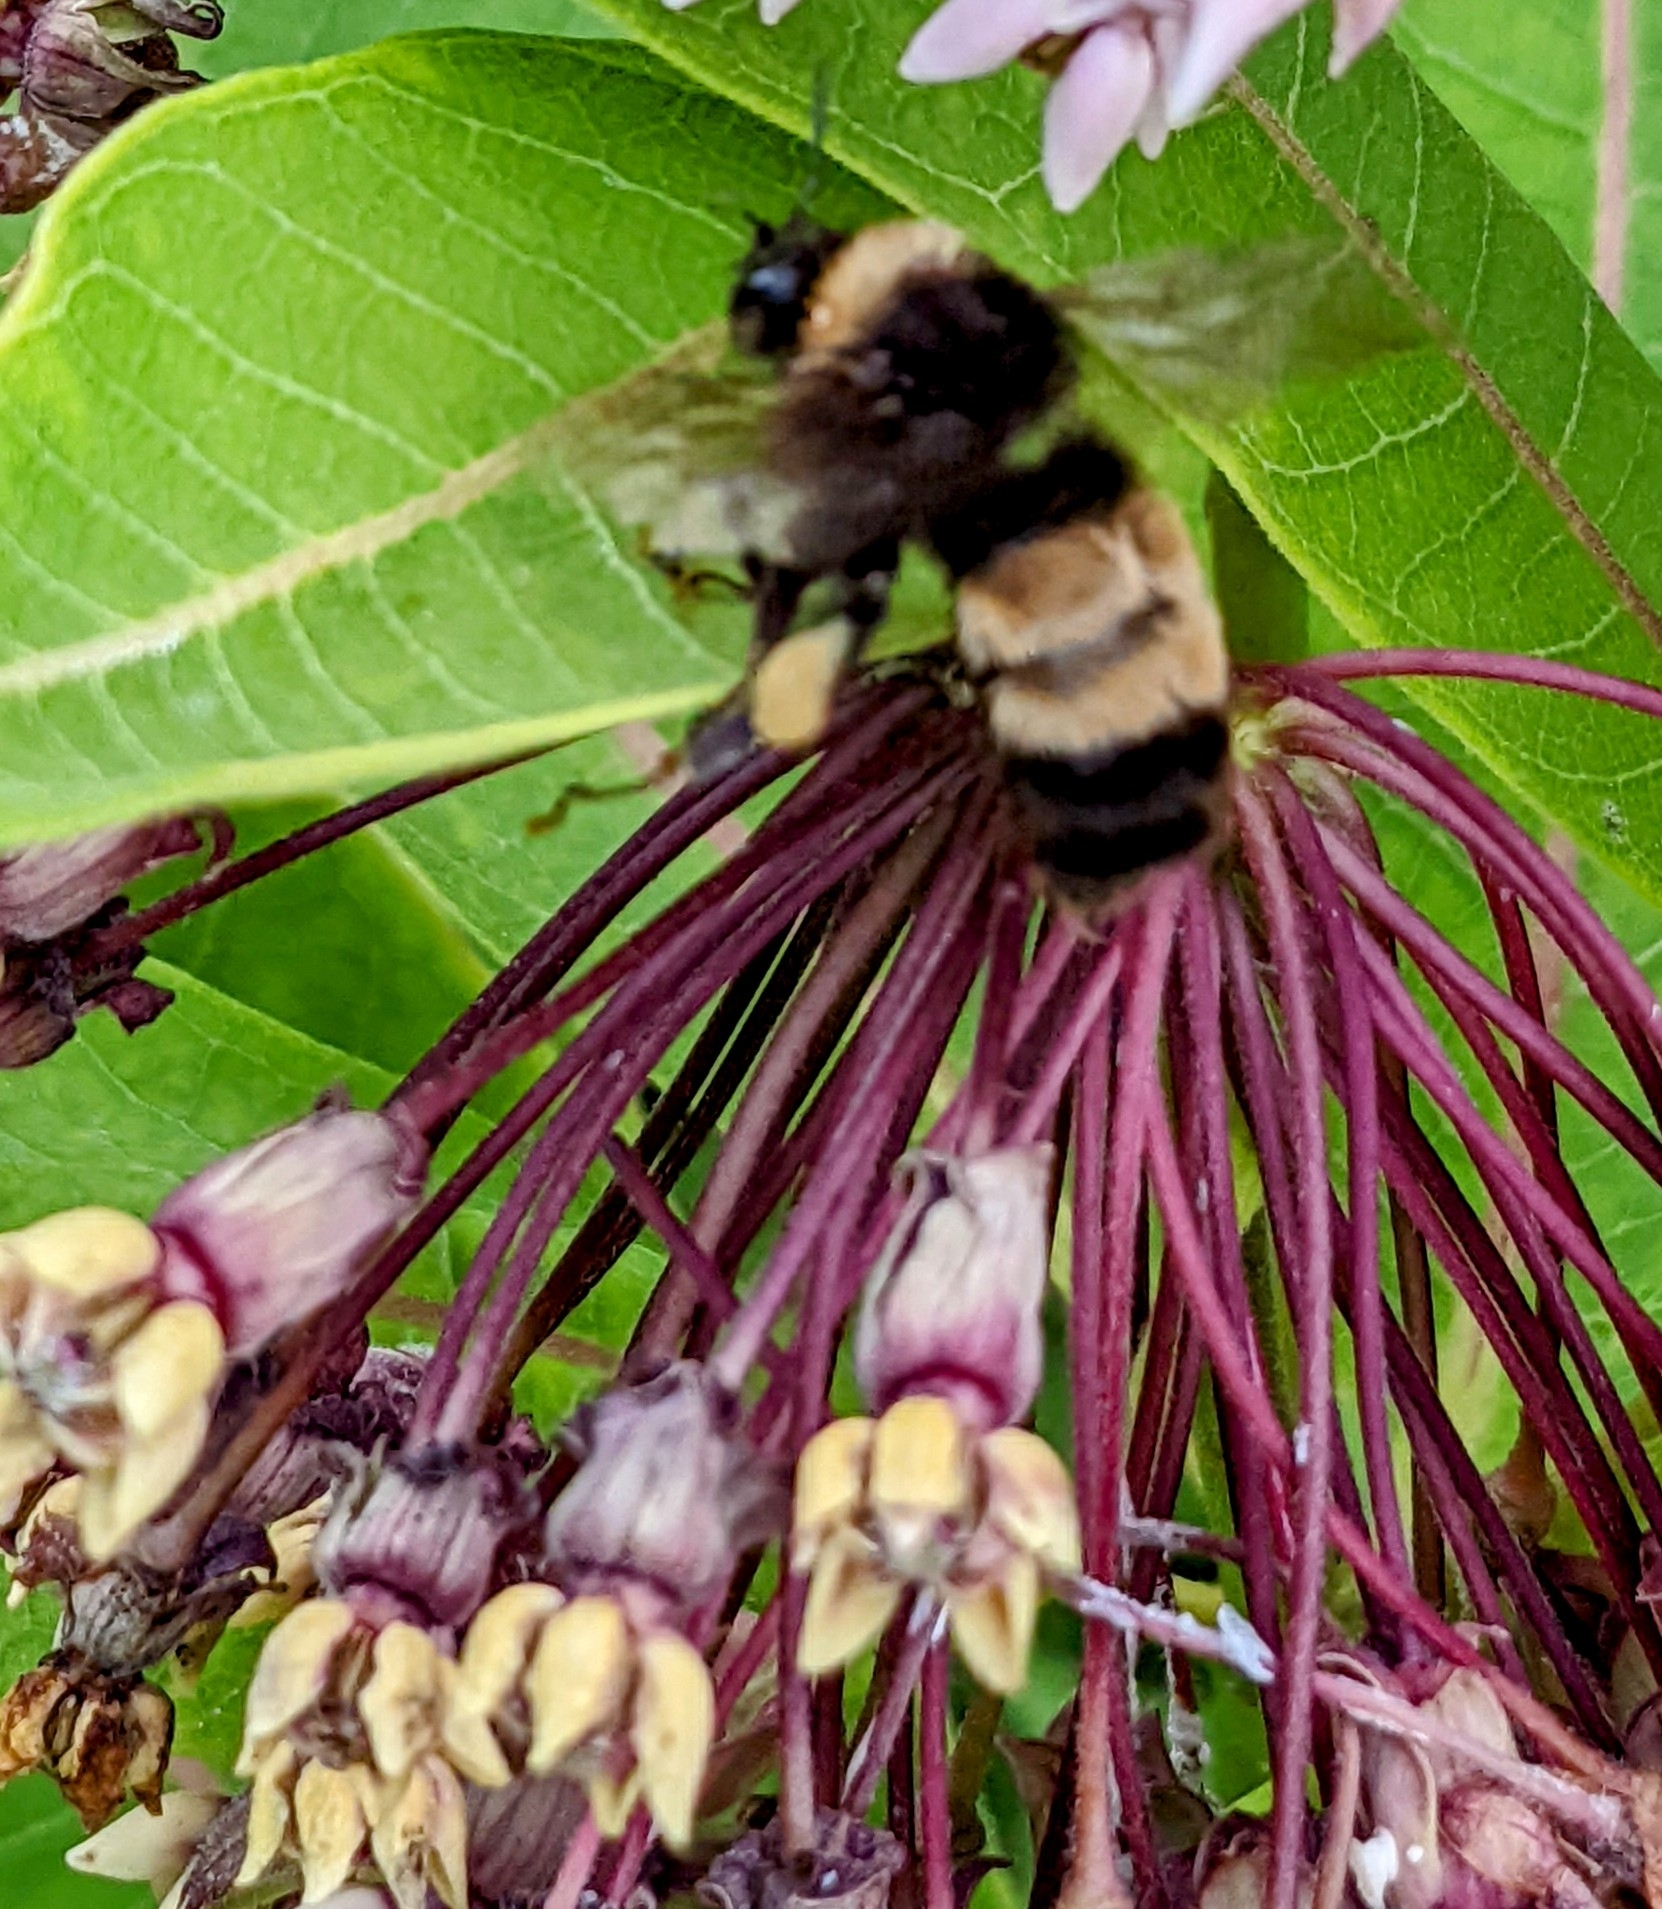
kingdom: Animalia
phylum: Arthropoda
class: Insecta
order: Hymenoptera
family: Apidae
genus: Bombus
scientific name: Bombus terricola
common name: Yellow-banded bumble bee
